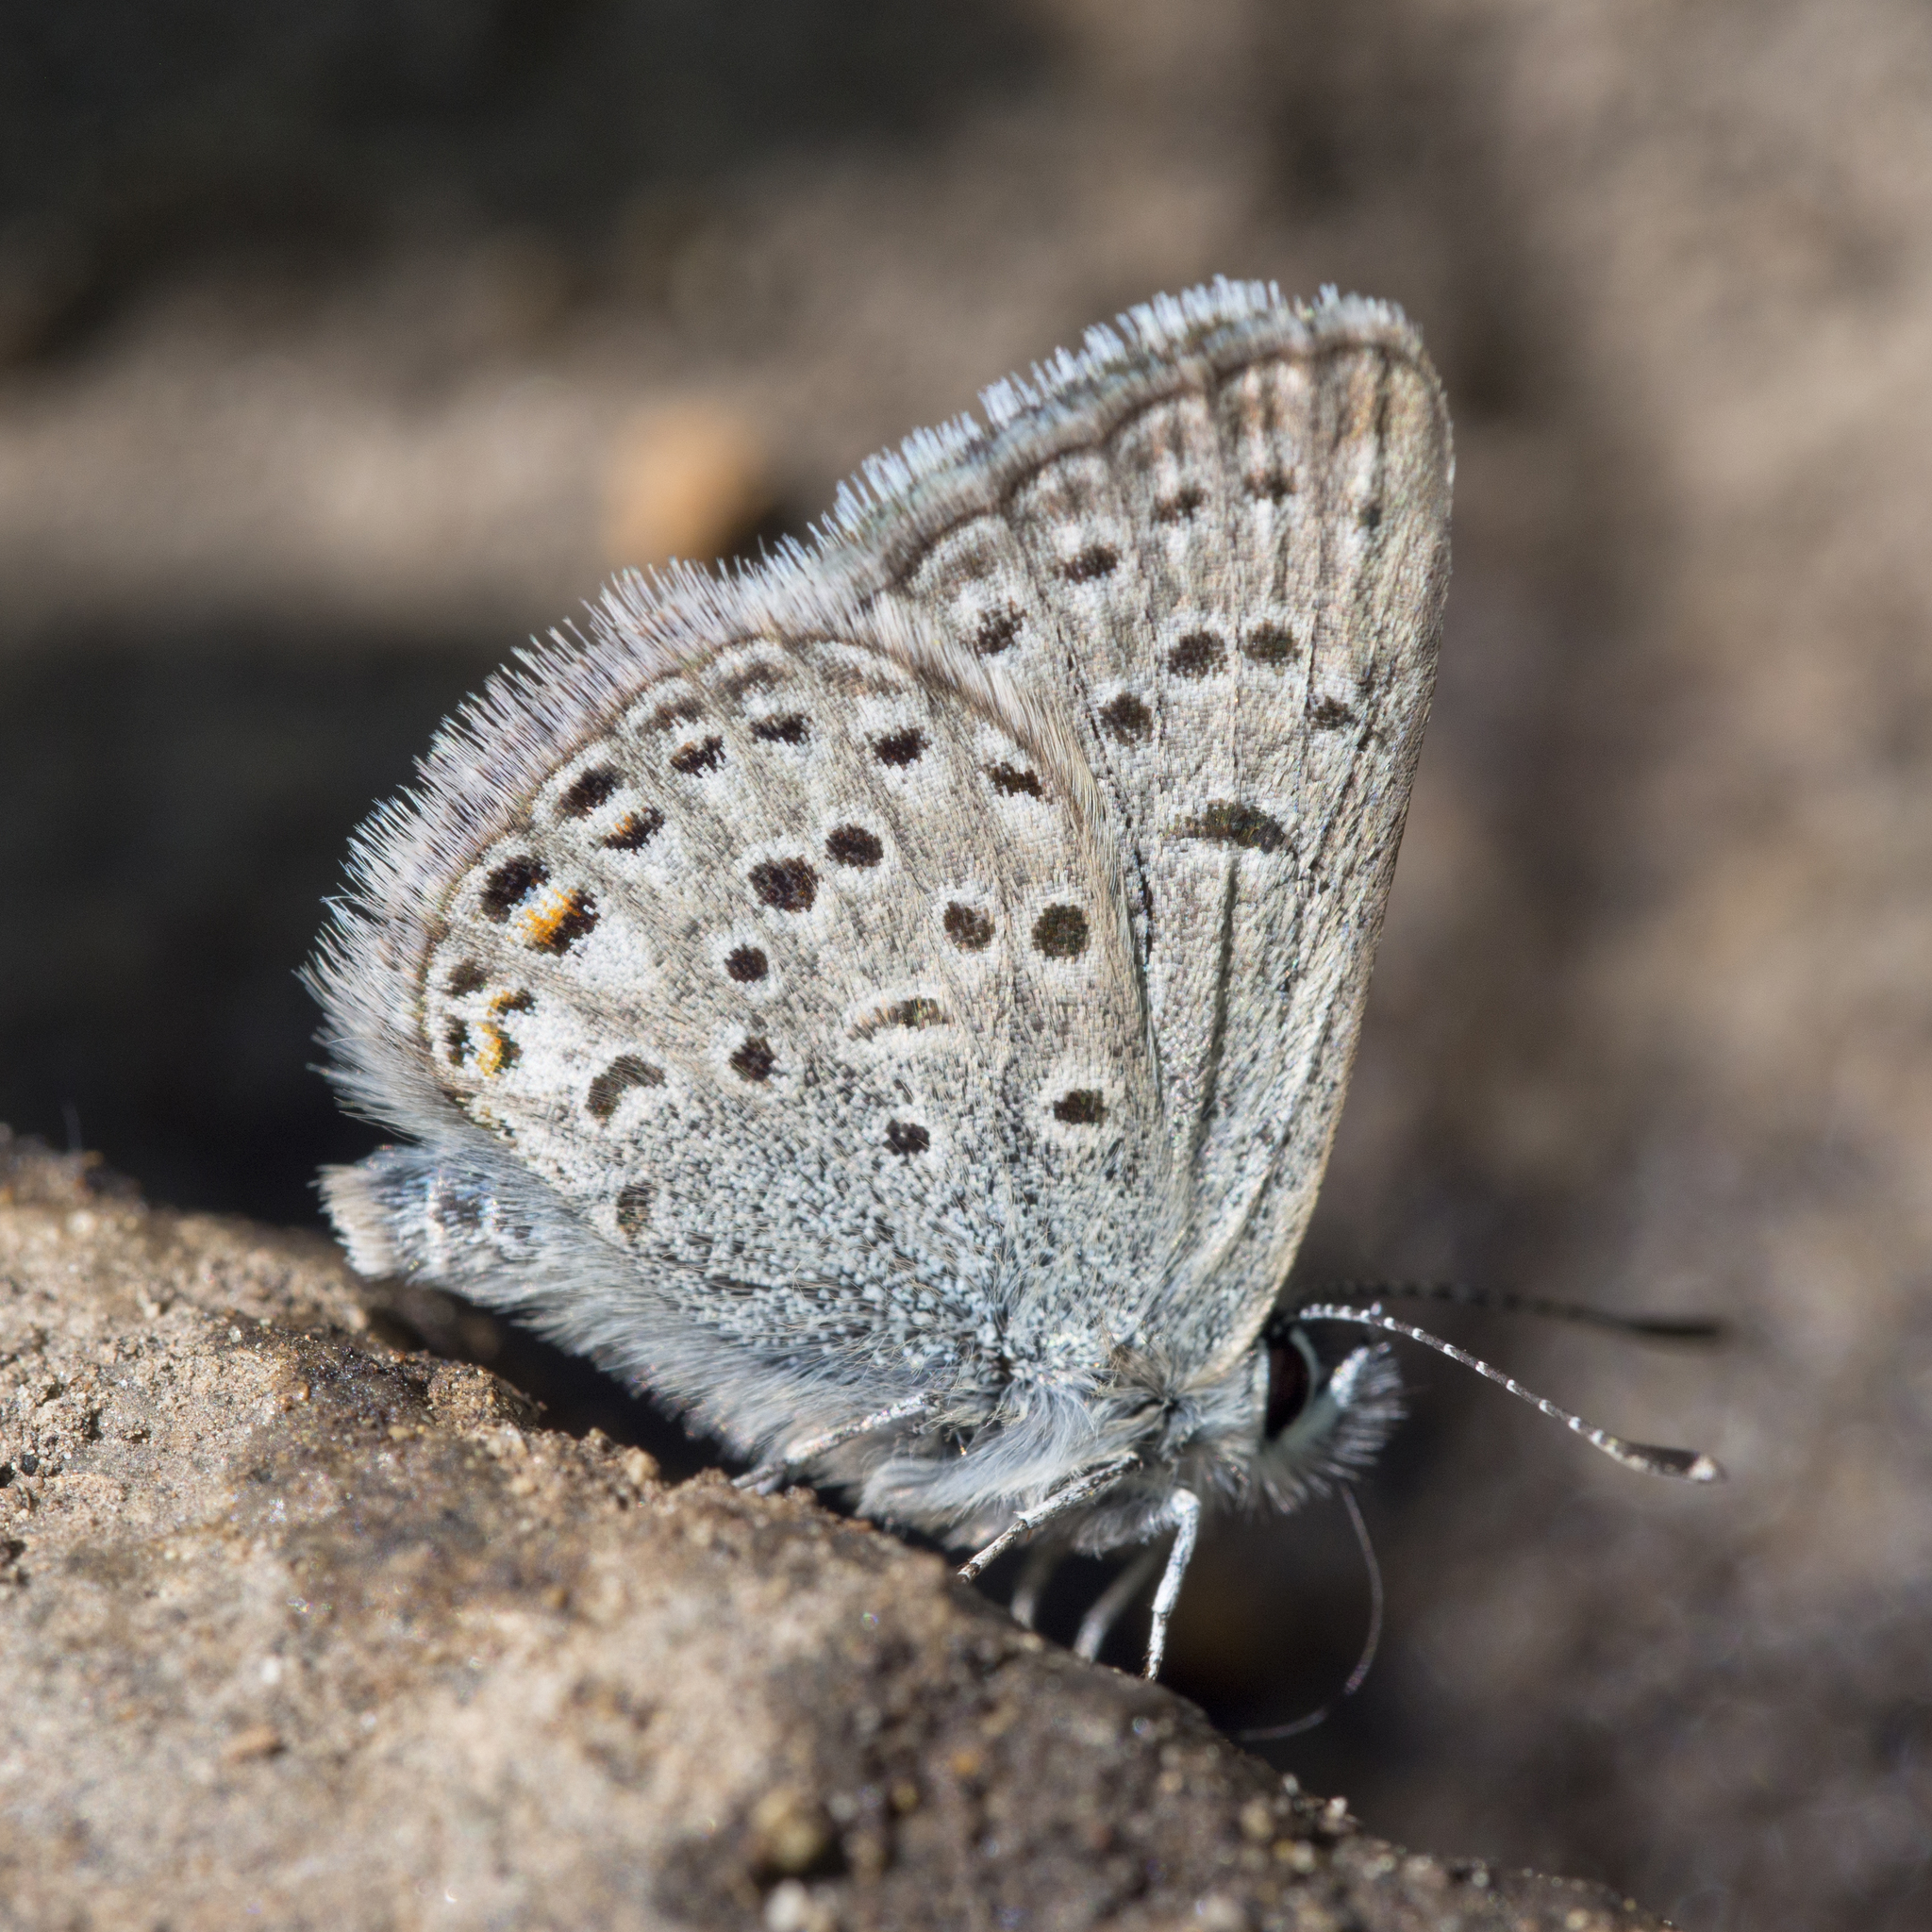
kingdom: Animalia
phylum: Arthropoda
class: Insecta
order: Lepidoptera
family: Lycaenidae
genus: Icaricia
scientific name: Icaricia saepiolus
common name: Greenish blue
